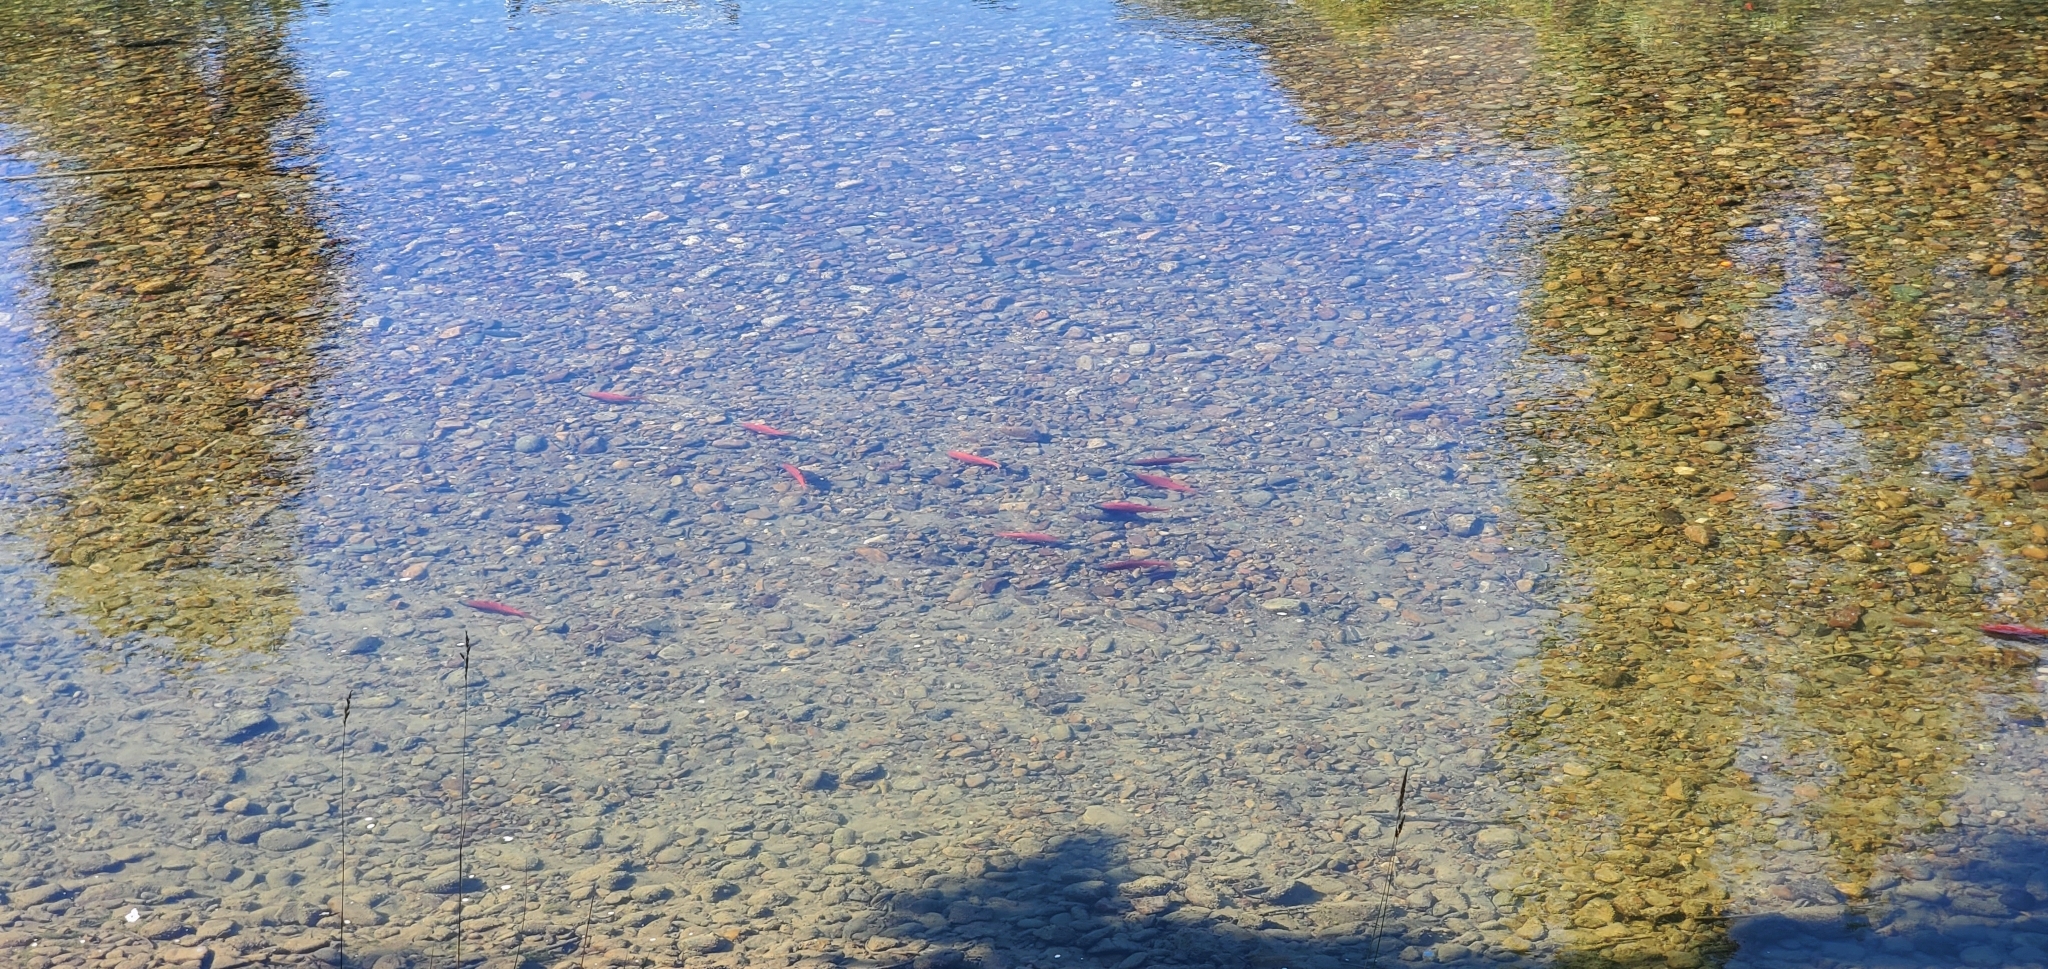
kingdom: Animalia
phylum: Chordata
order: Salmoniformes
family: Salmonidae
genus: Oncorhynchus
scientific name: Oncorhynchus nerka
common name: Sockeye salmon
